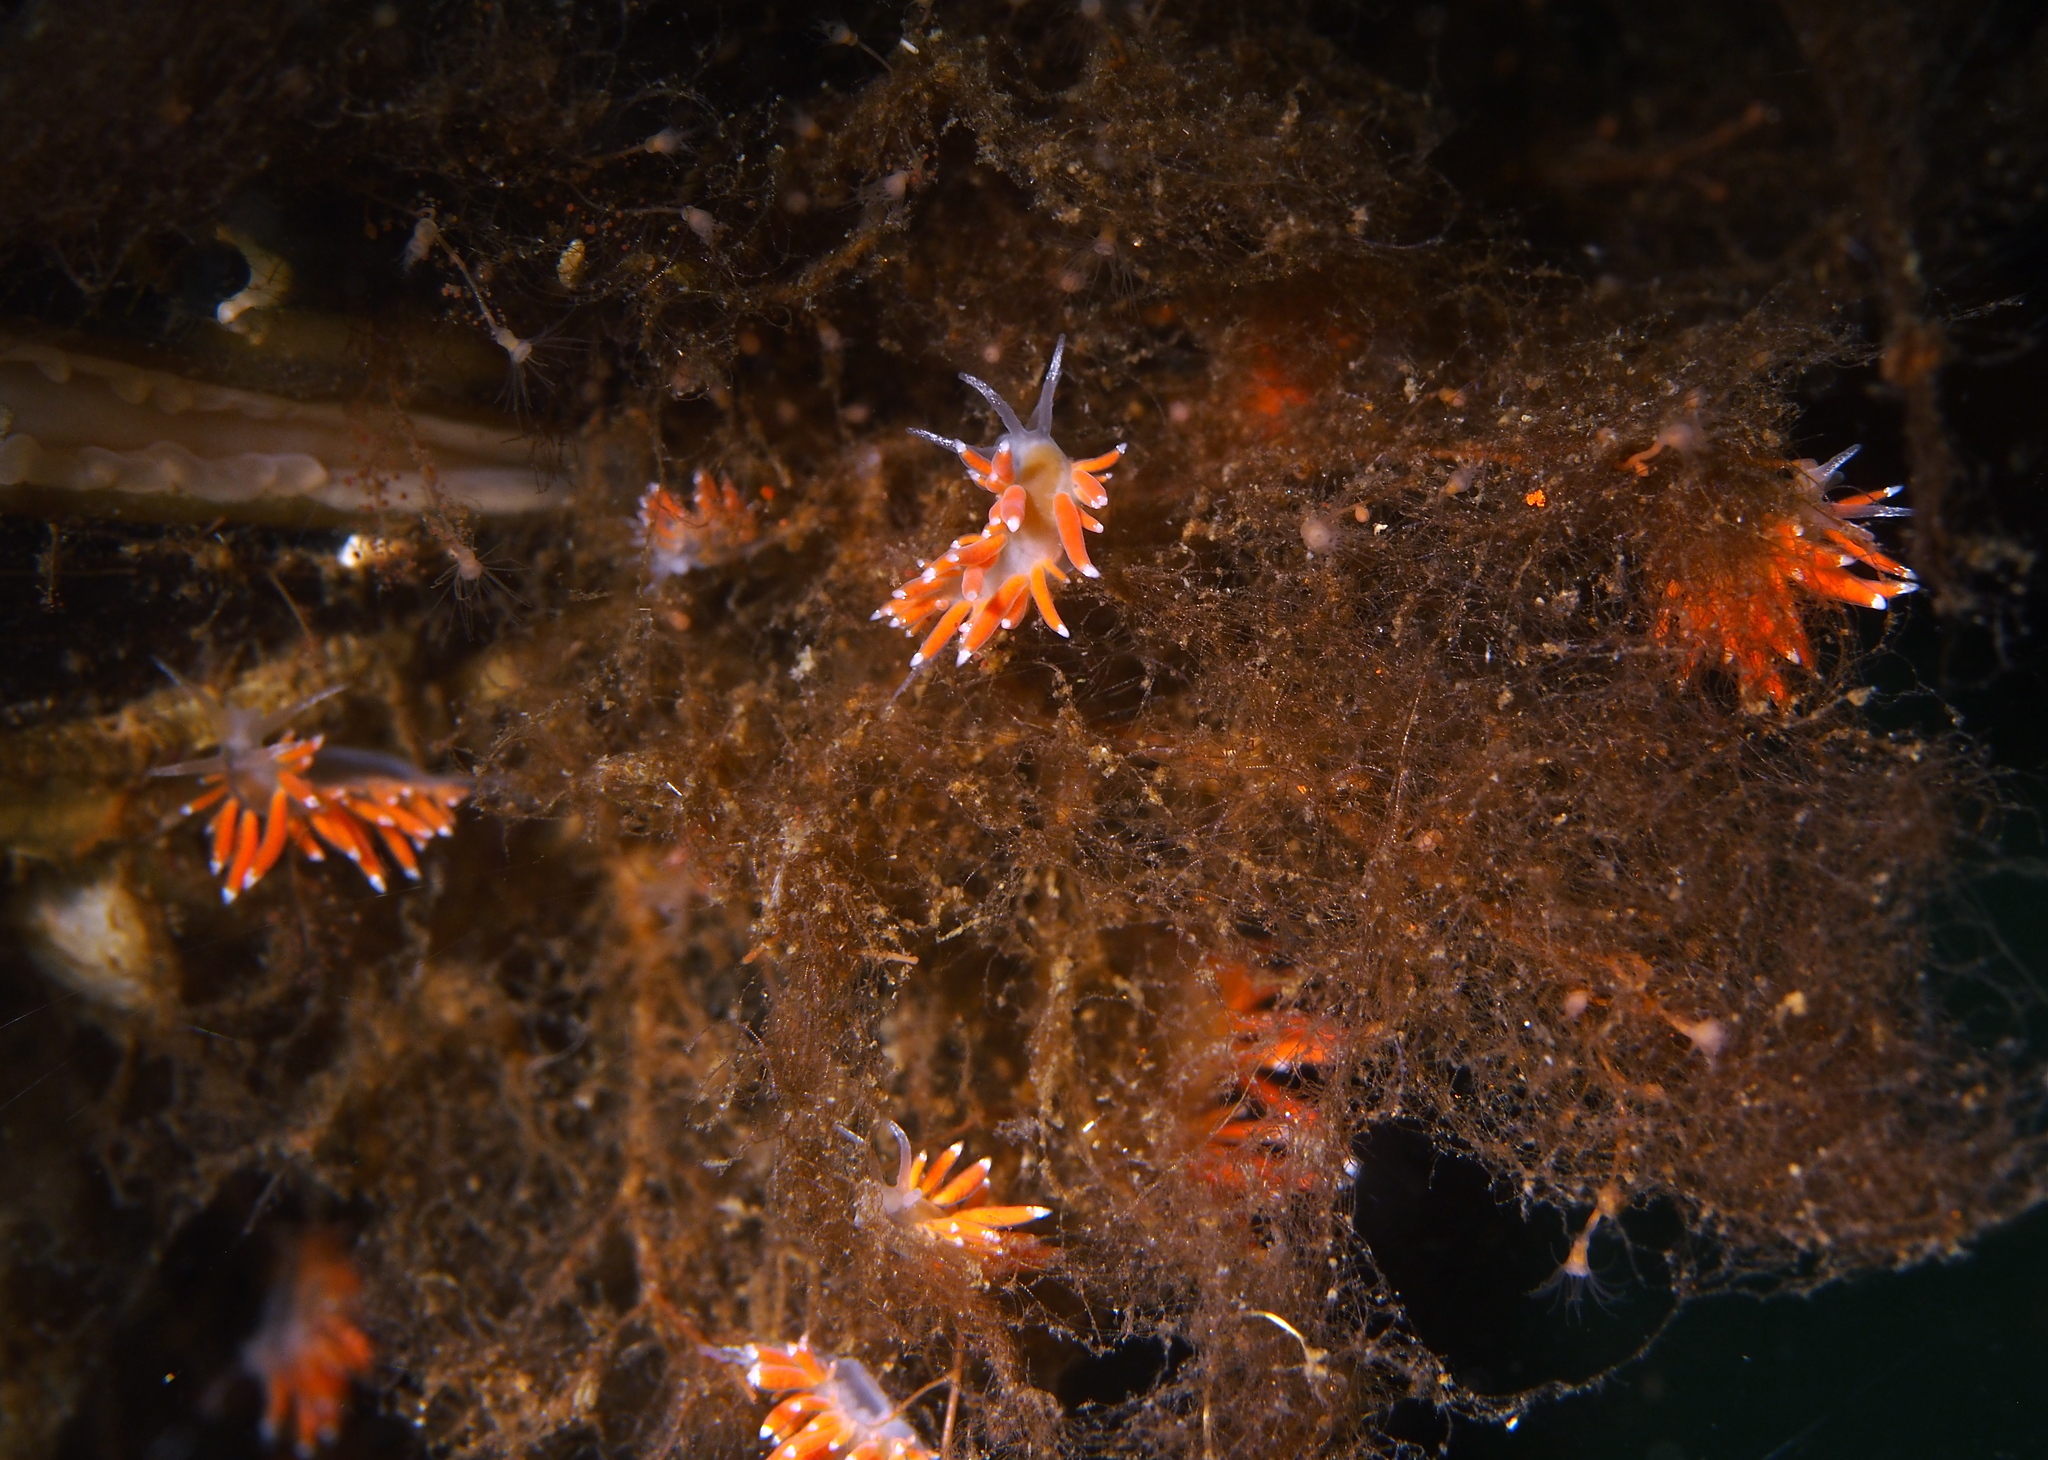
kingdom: Animalia
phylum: Mollusca
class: Gastropoda
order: Nudibranchia
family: Coryphellidae
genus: Coryphella
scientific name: Coryphella gracilis
